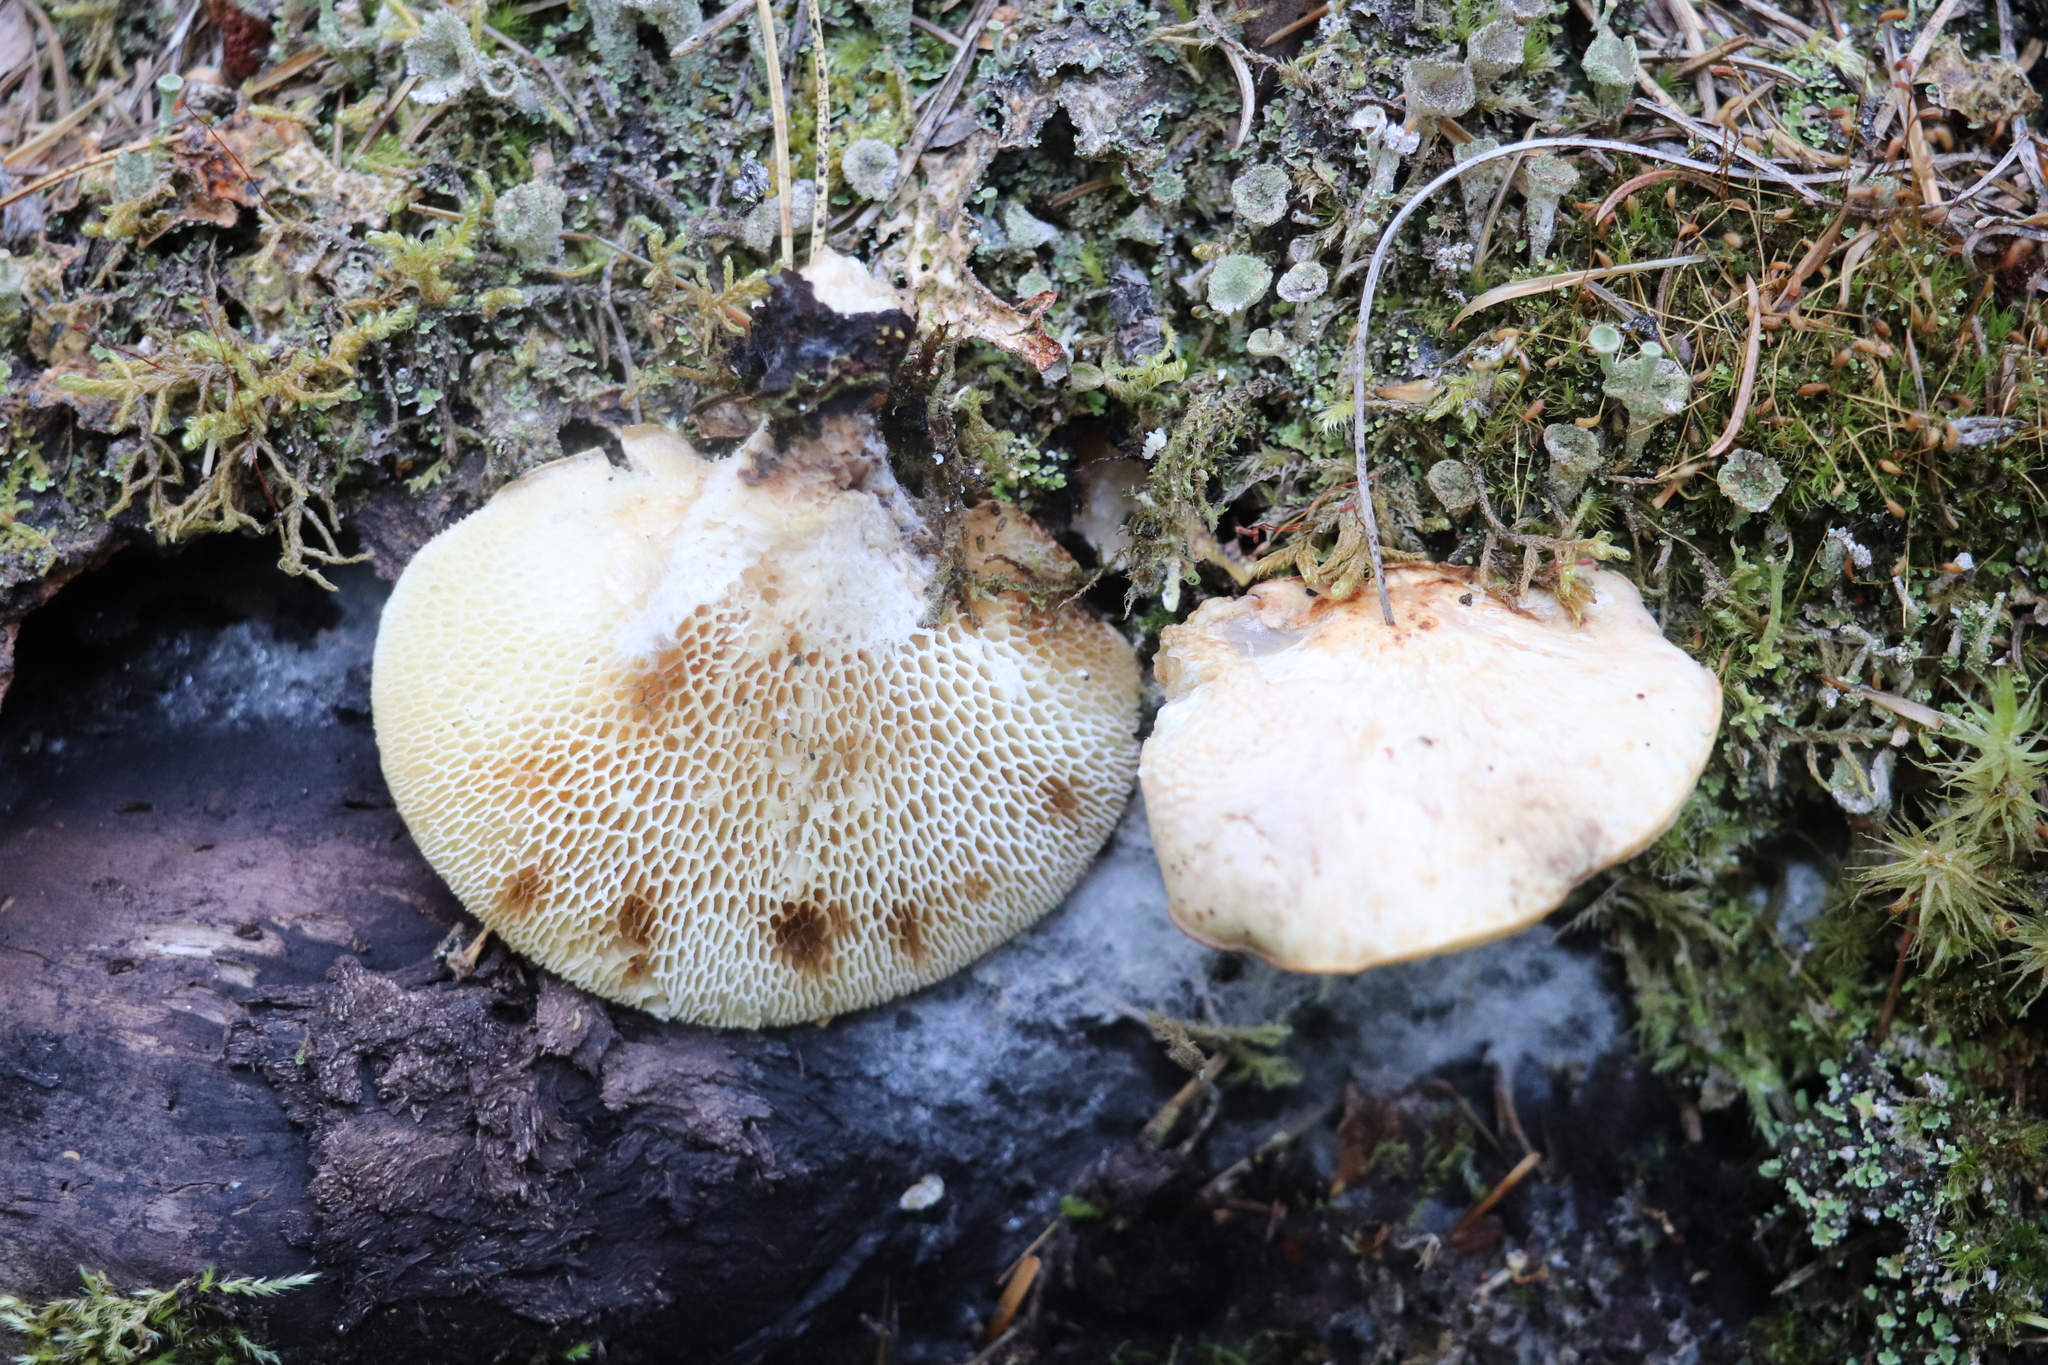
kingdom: Fungi
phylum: Basidiomycota
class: Agaricomycetes
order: Polyporales
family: Polyporaceae
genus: Cerioporus
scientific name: Cerioporus squamosus
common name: Dryad's saddle
